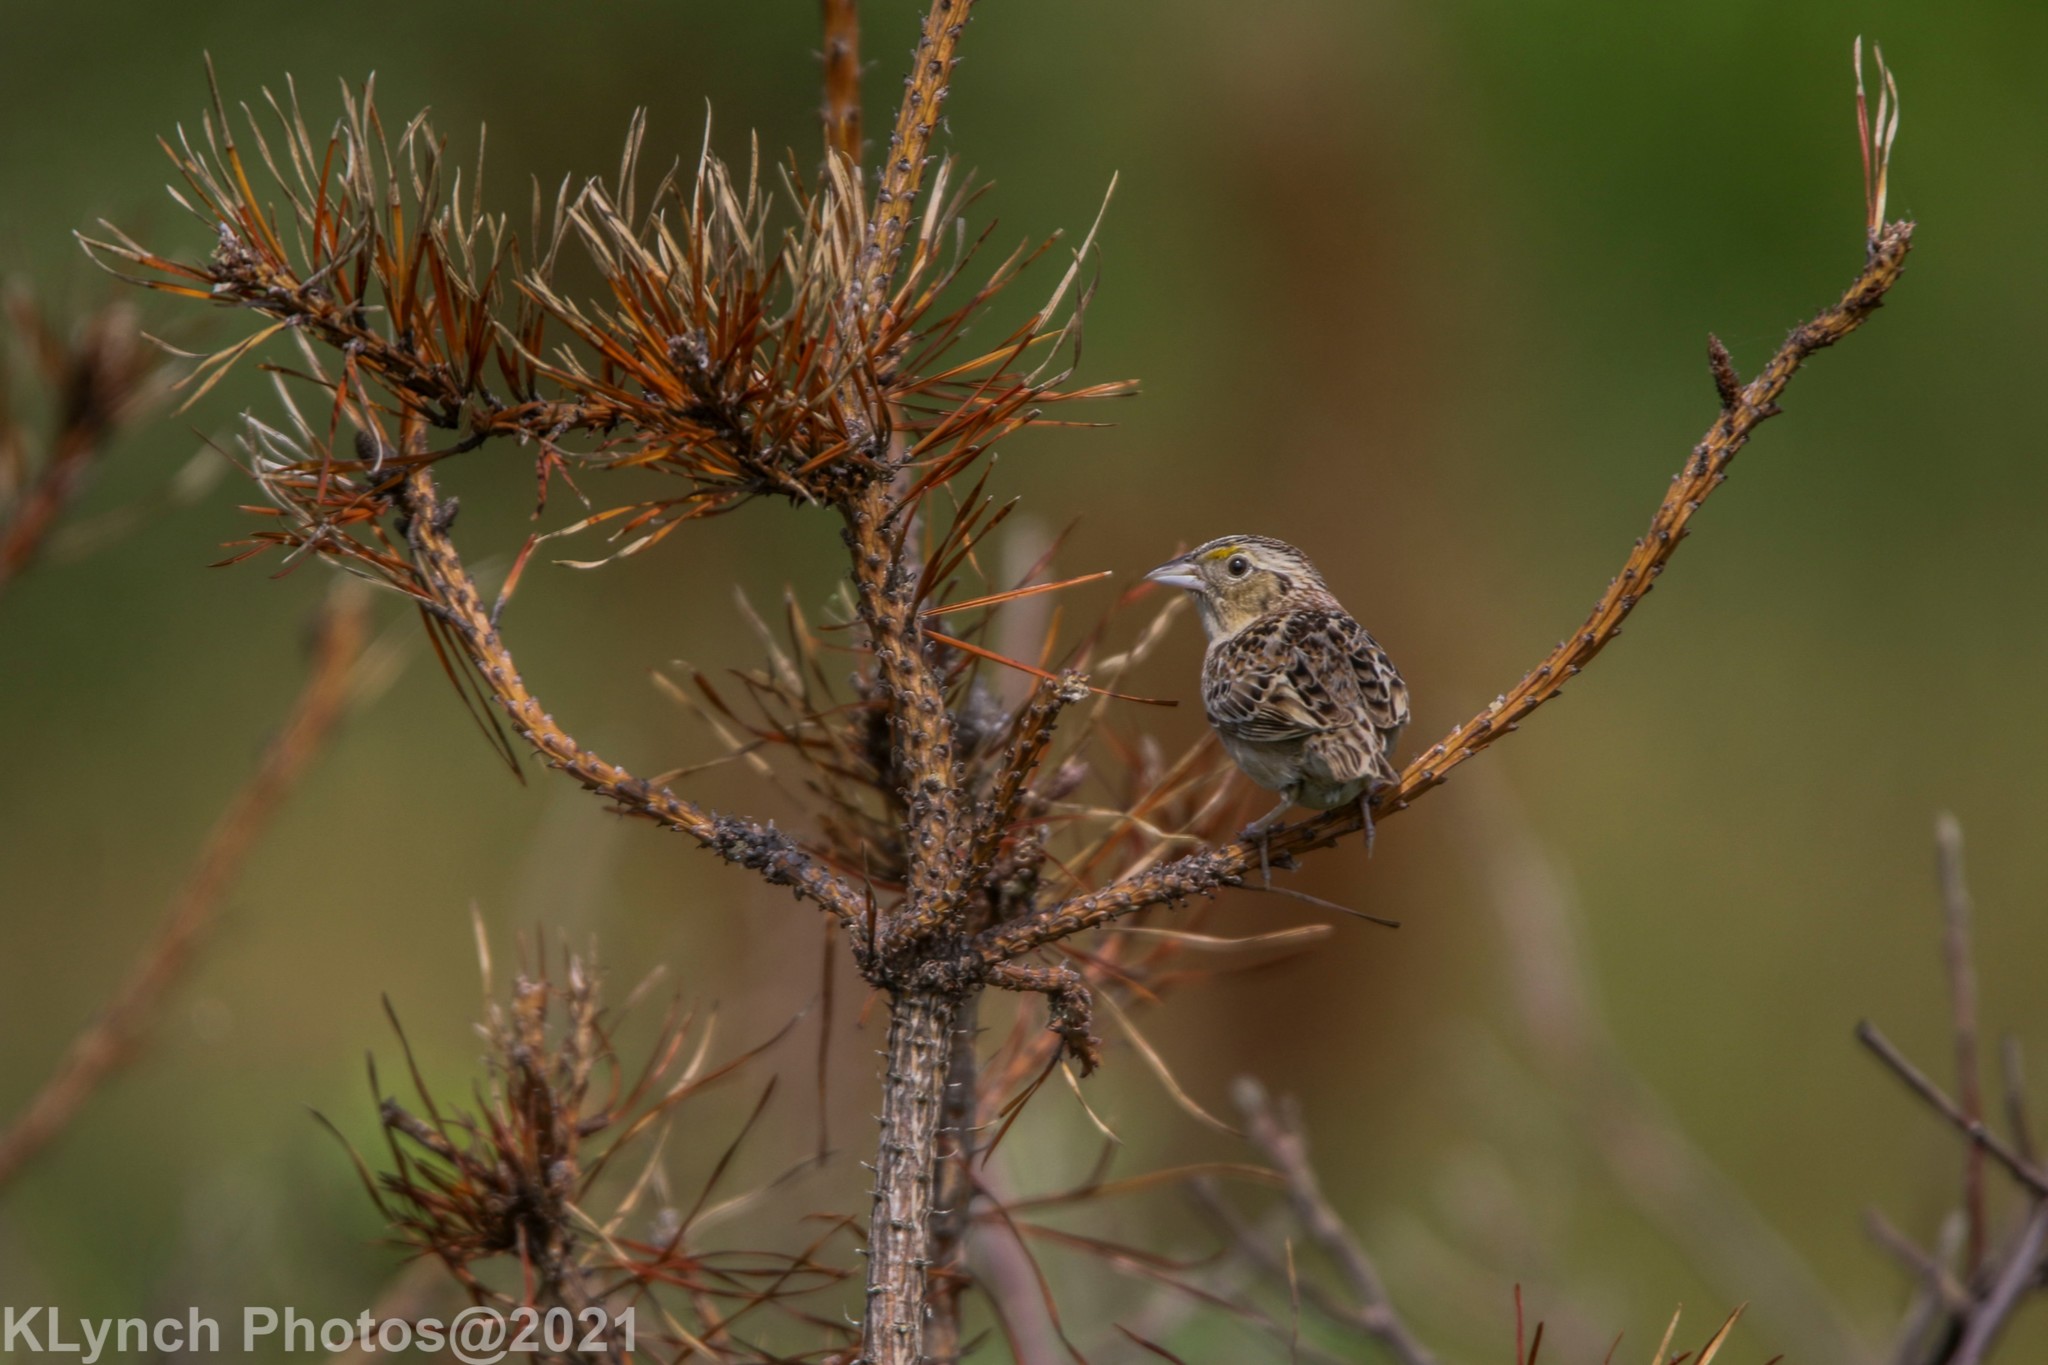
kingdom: Animalia
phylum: Chordata
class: Aves
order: Passeriformes
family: Passerellidae
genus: Ammodramus
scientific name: Ammodramus savannarum
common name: Grasshopper sparrow
